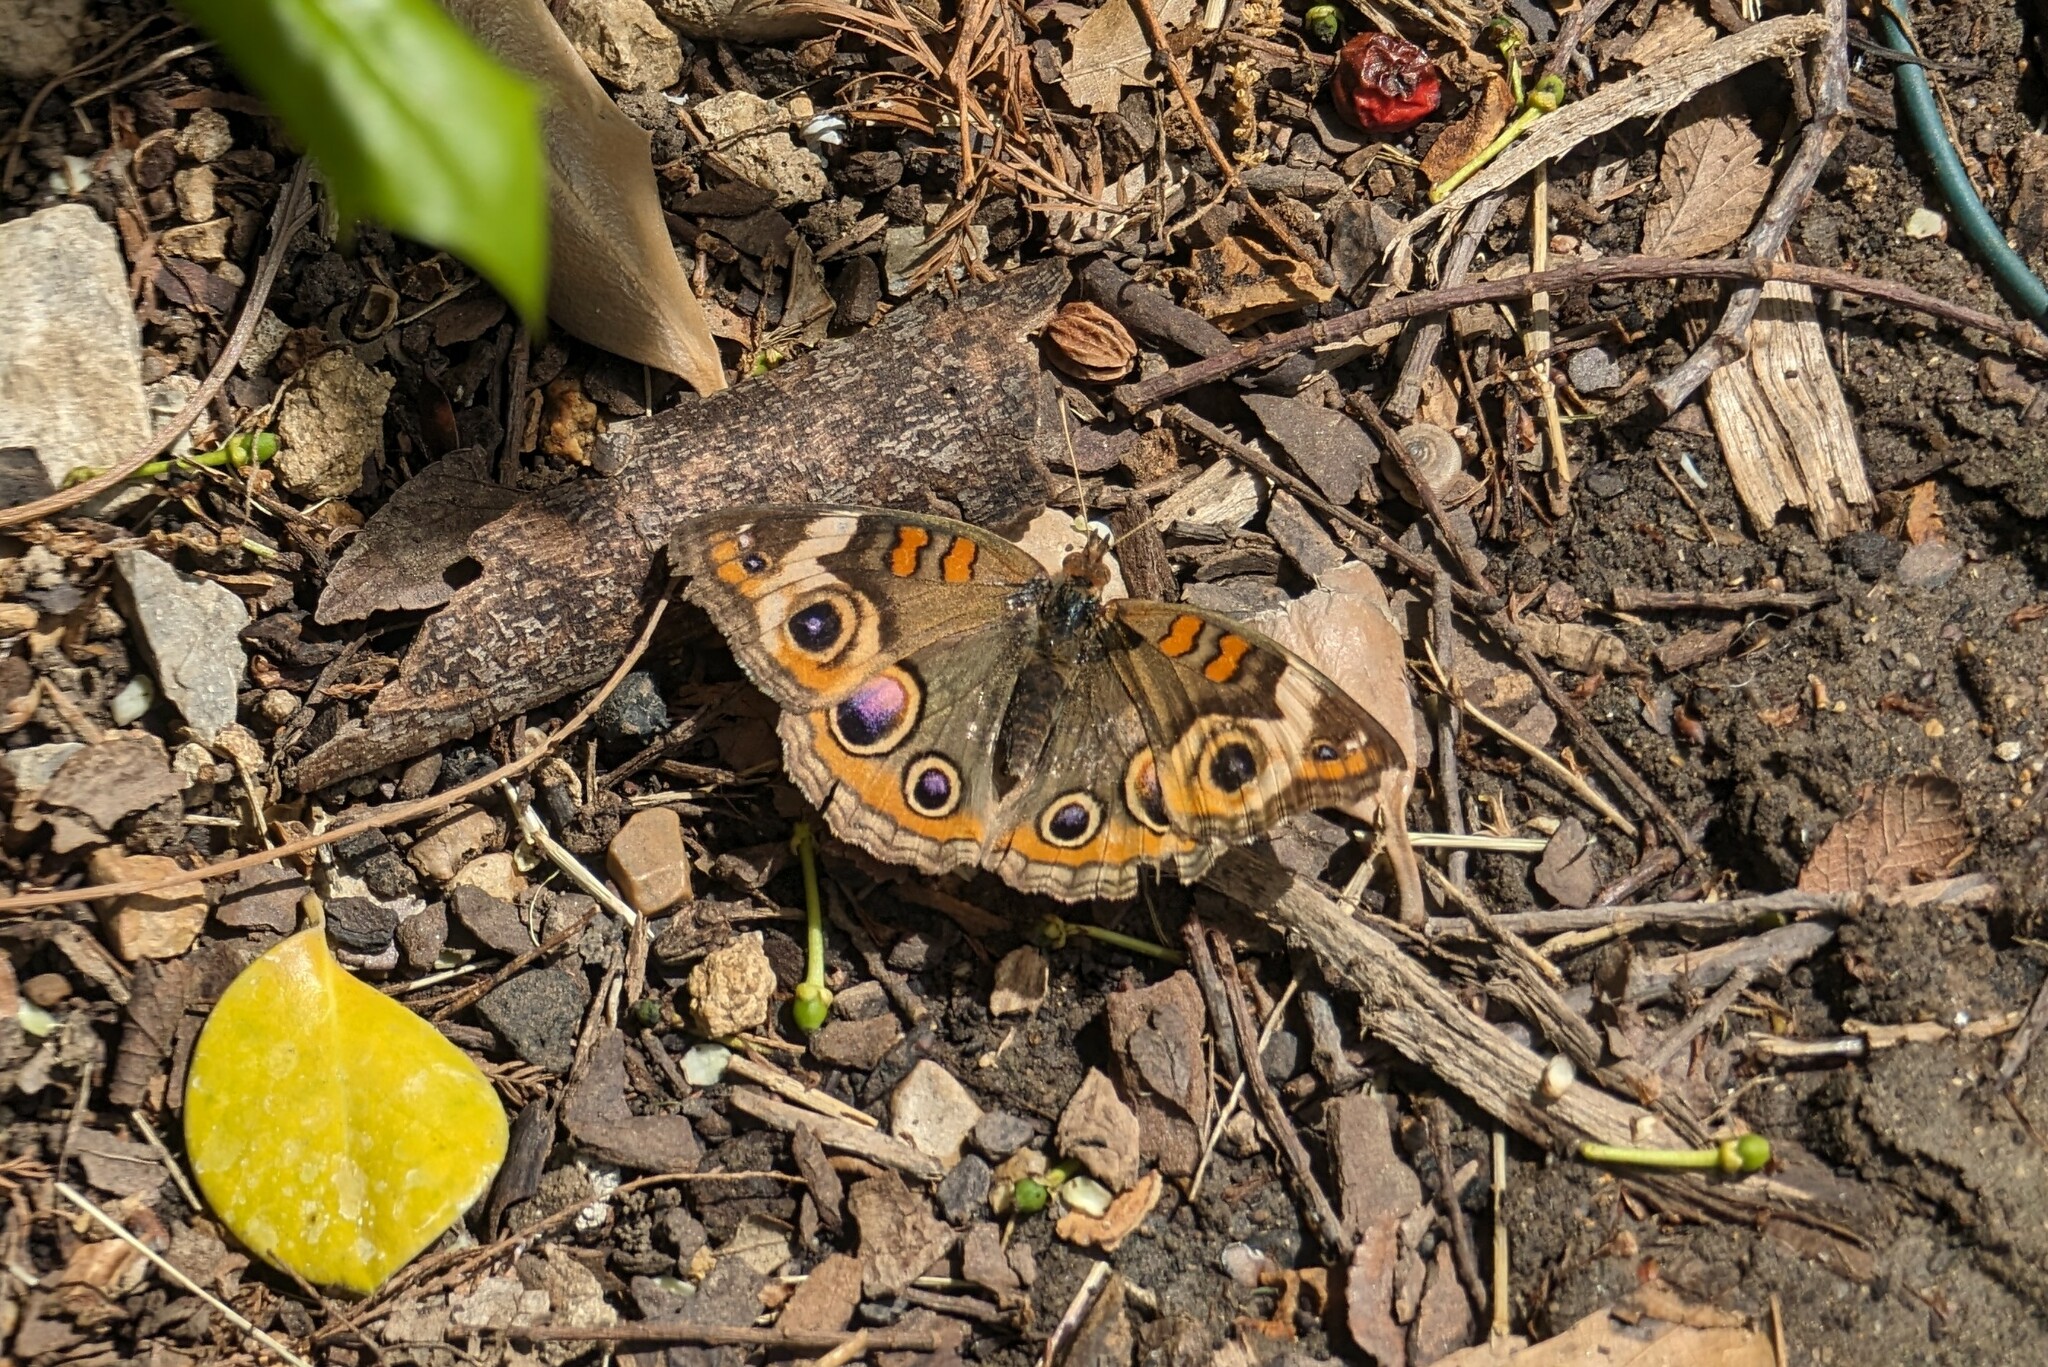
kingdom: Animalia
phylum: Arthropoda
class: Insecta
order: Lepidoptera
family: Nymphalidae
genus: Junonia
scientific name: Junonia coenia
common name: Common buckeye
